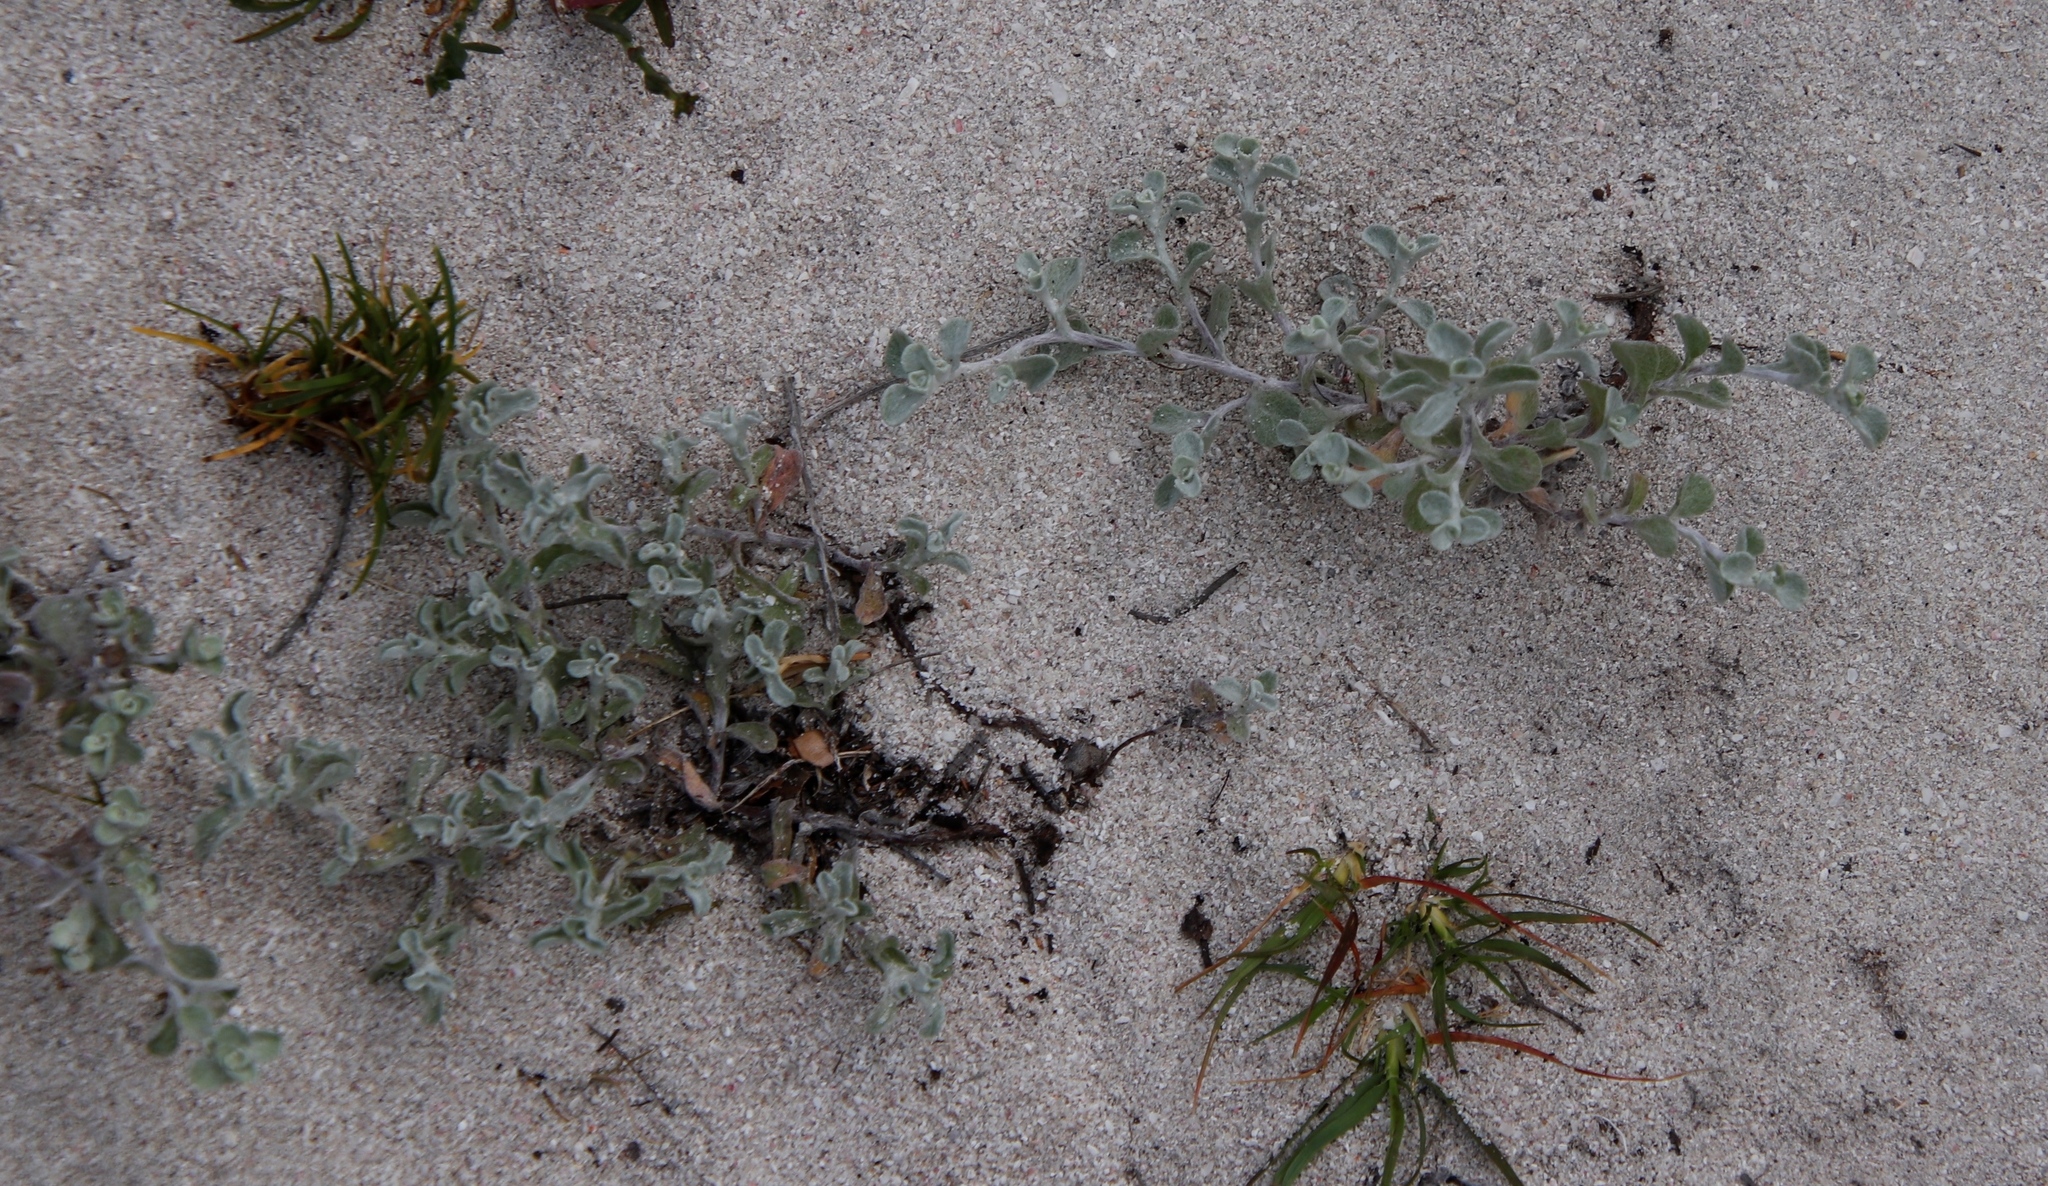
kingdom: Plantae
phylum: Tracheophyta
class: Magnoliopsida
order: Asterales
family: Asteraceae
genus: Helichrysum
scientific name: Helichrysum litorale
